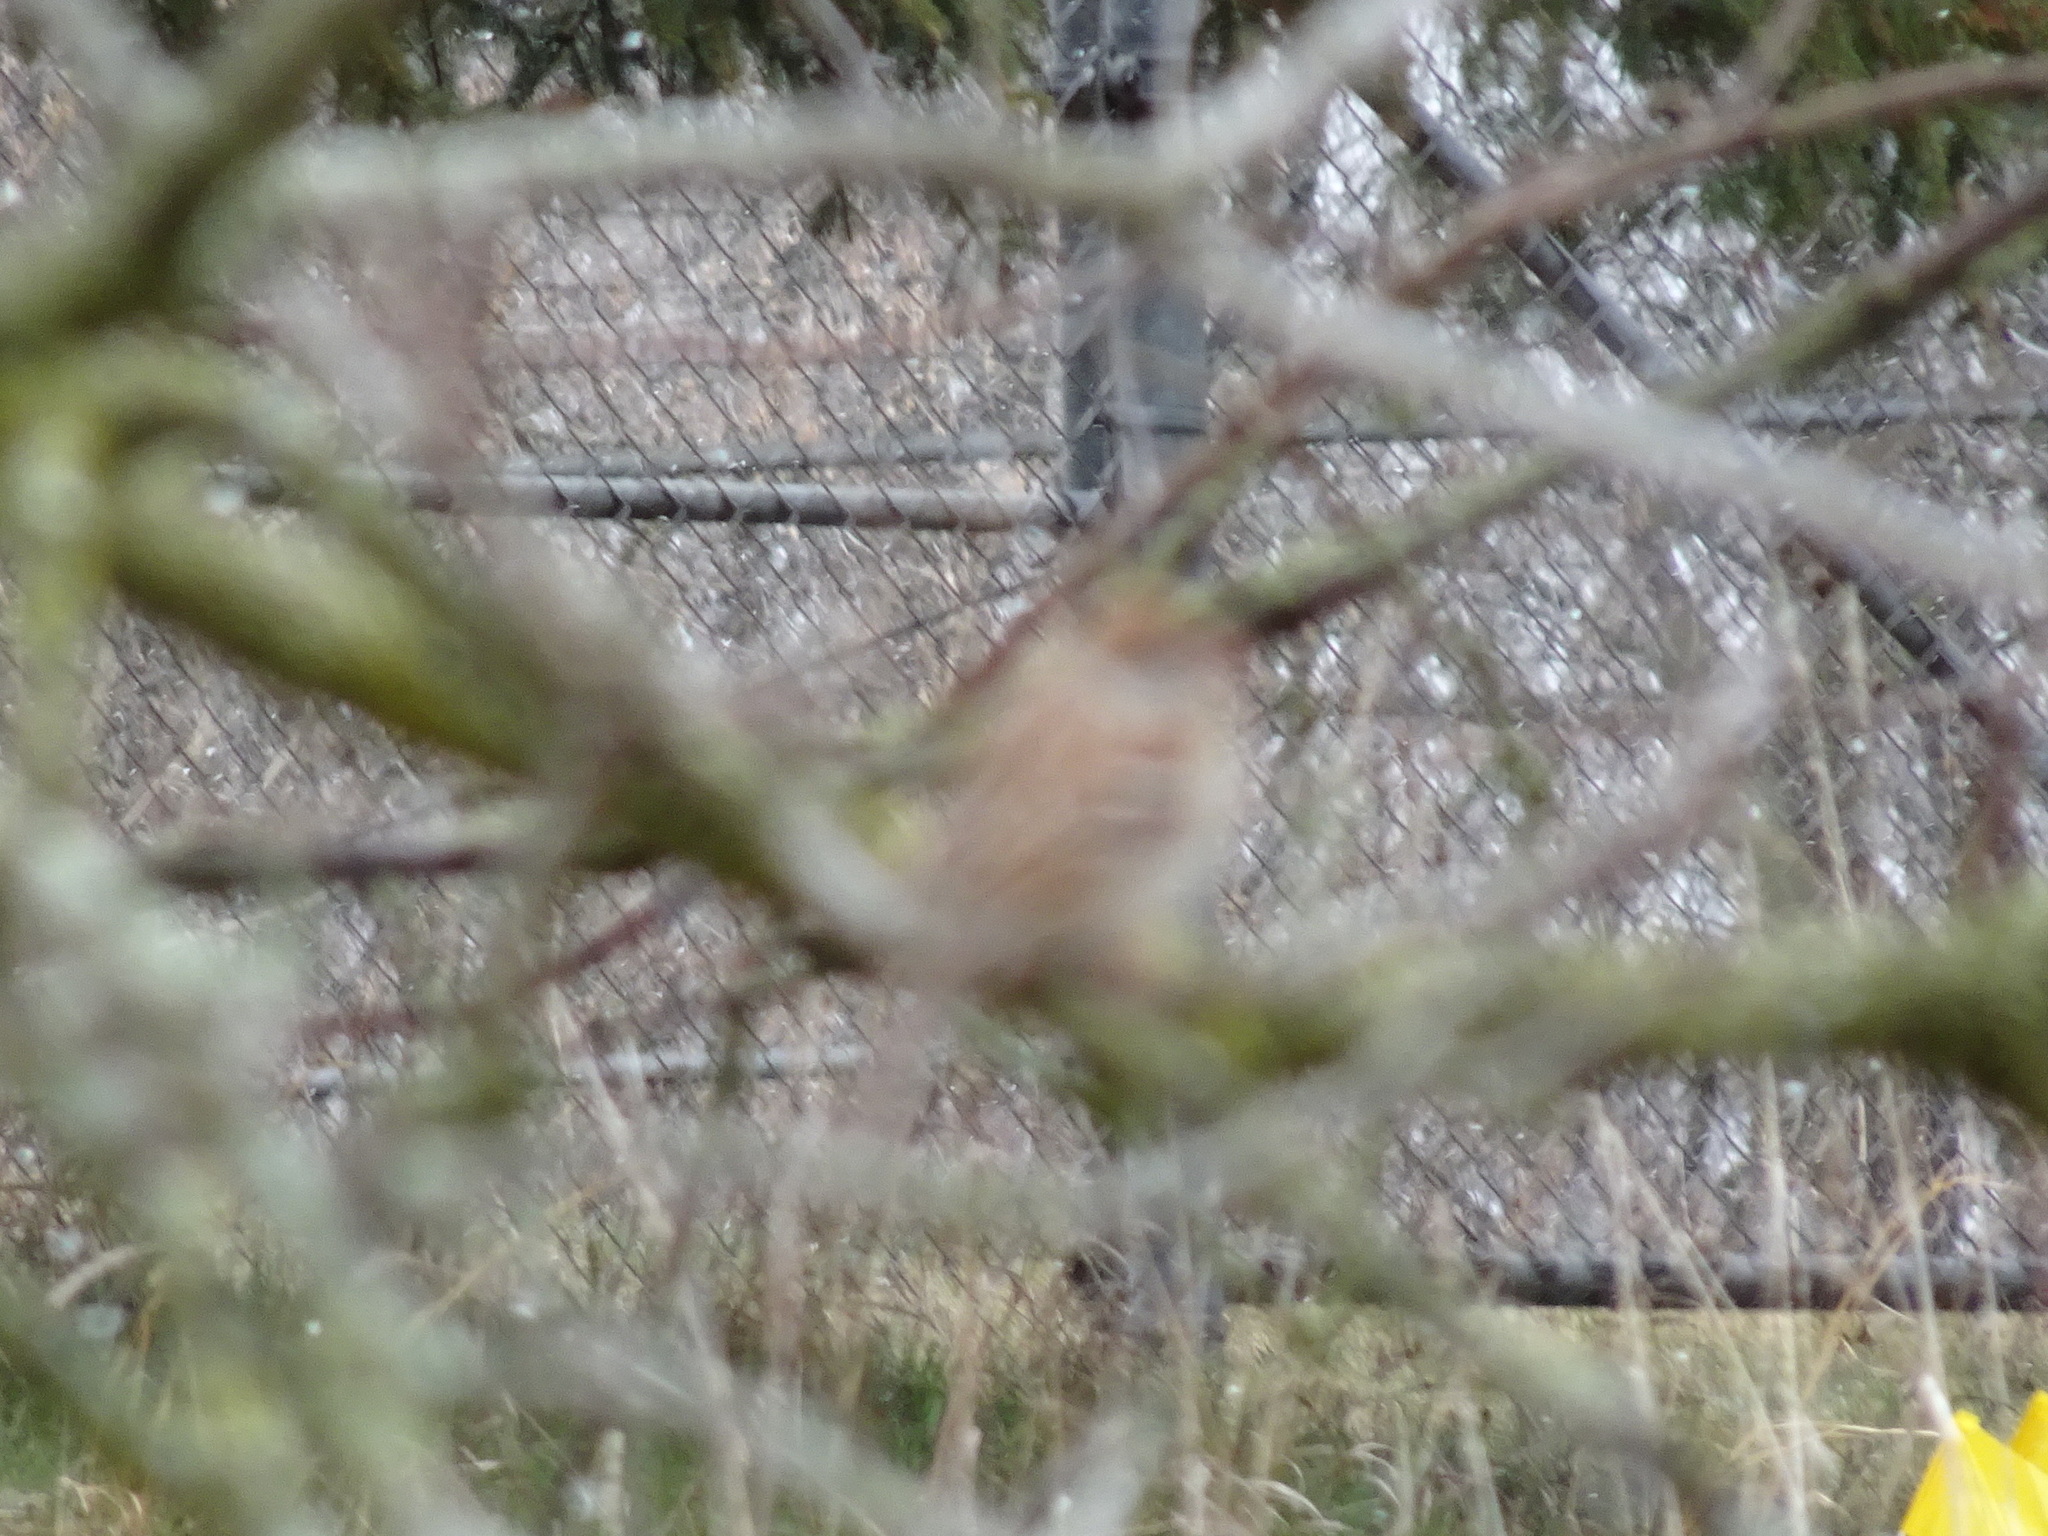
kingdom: Animalia
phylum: Chordata
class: Aves
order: Passeriformes
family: Passerellidae
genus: Spizella
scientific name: Spizella pusilla
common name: Field sparrow
